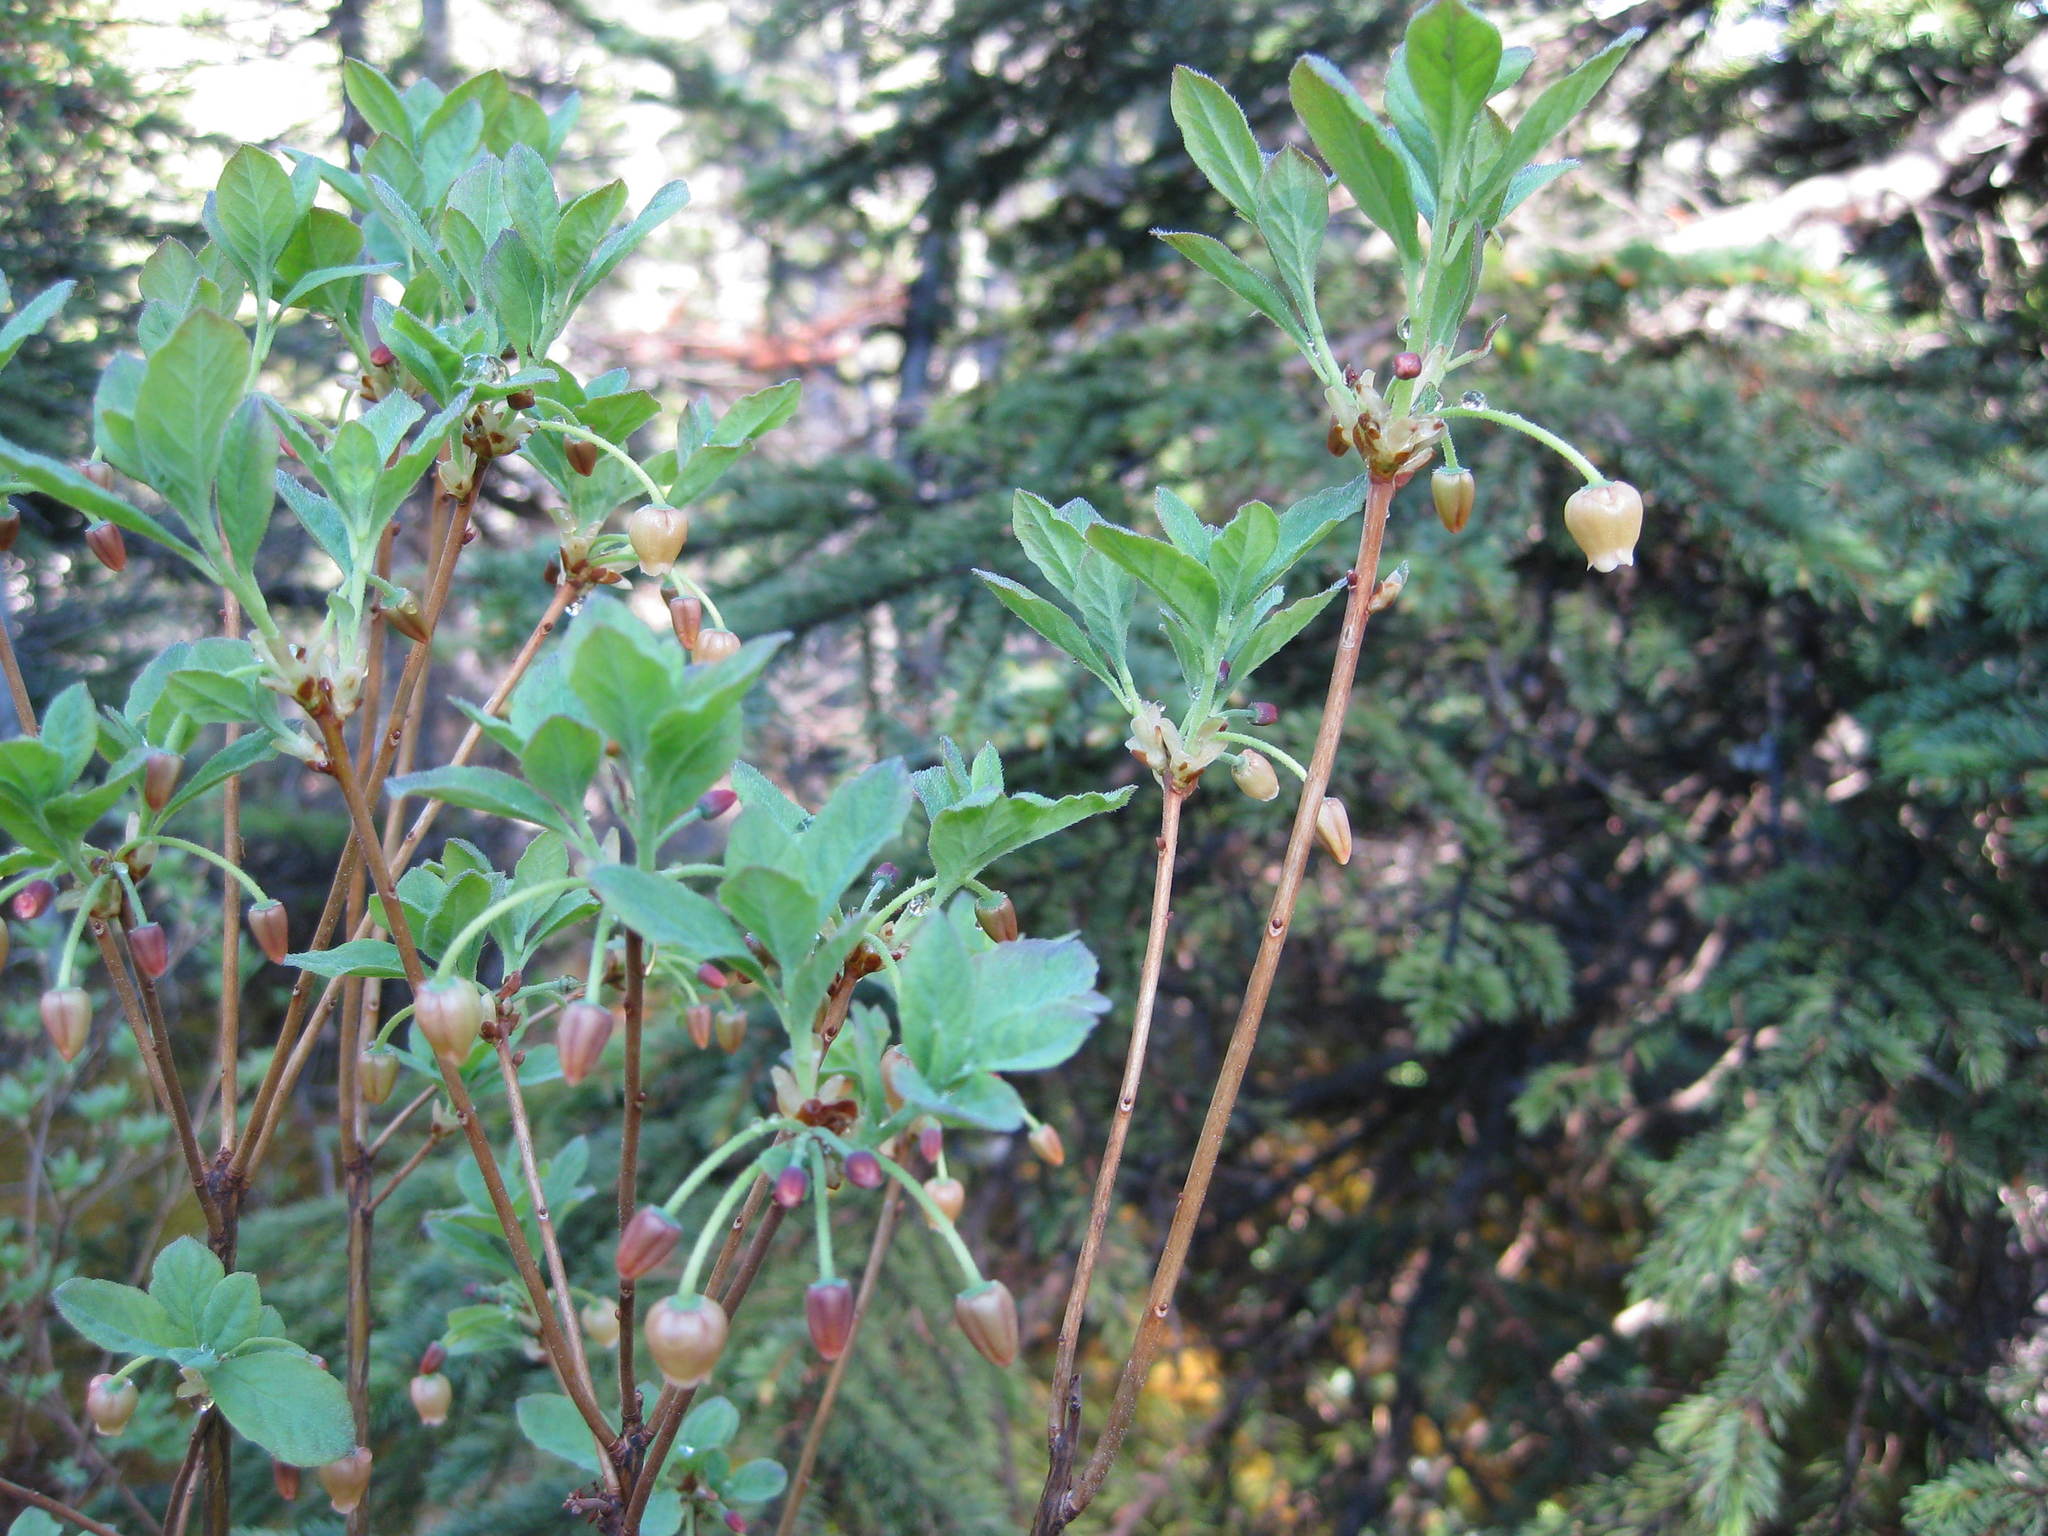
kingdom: Plantae
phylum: Tracheophyta
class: Magnoliopsida
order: Ericales
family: Ericaceae
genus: Rhododendron
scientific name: Rhododendron menziesii
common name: Pacific menziesia
